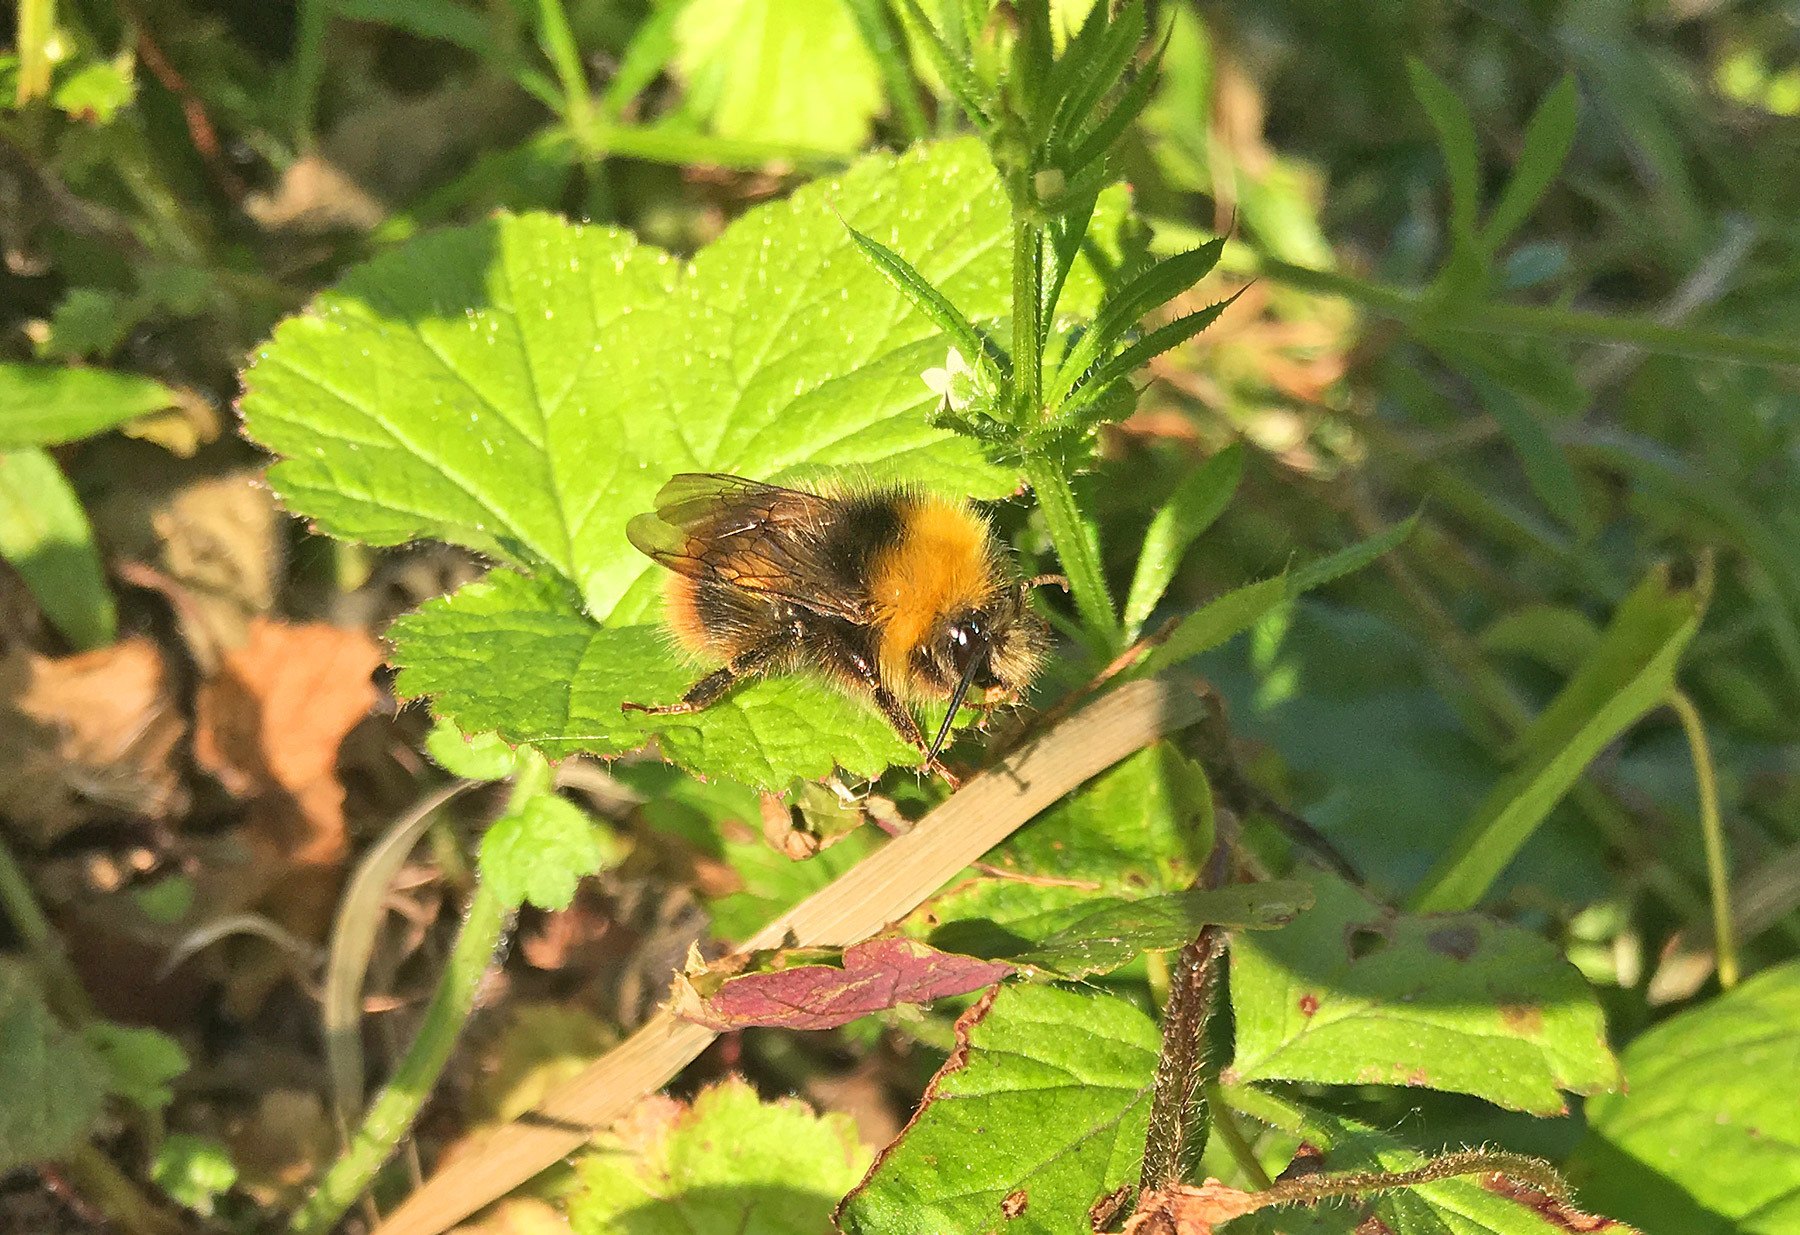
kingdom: Animalia
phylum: Arthropoda
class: Insecta
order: Hymenoptera
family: Apidae
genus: Bombus
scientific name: Bombus pratorum
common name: Early humble-bee
